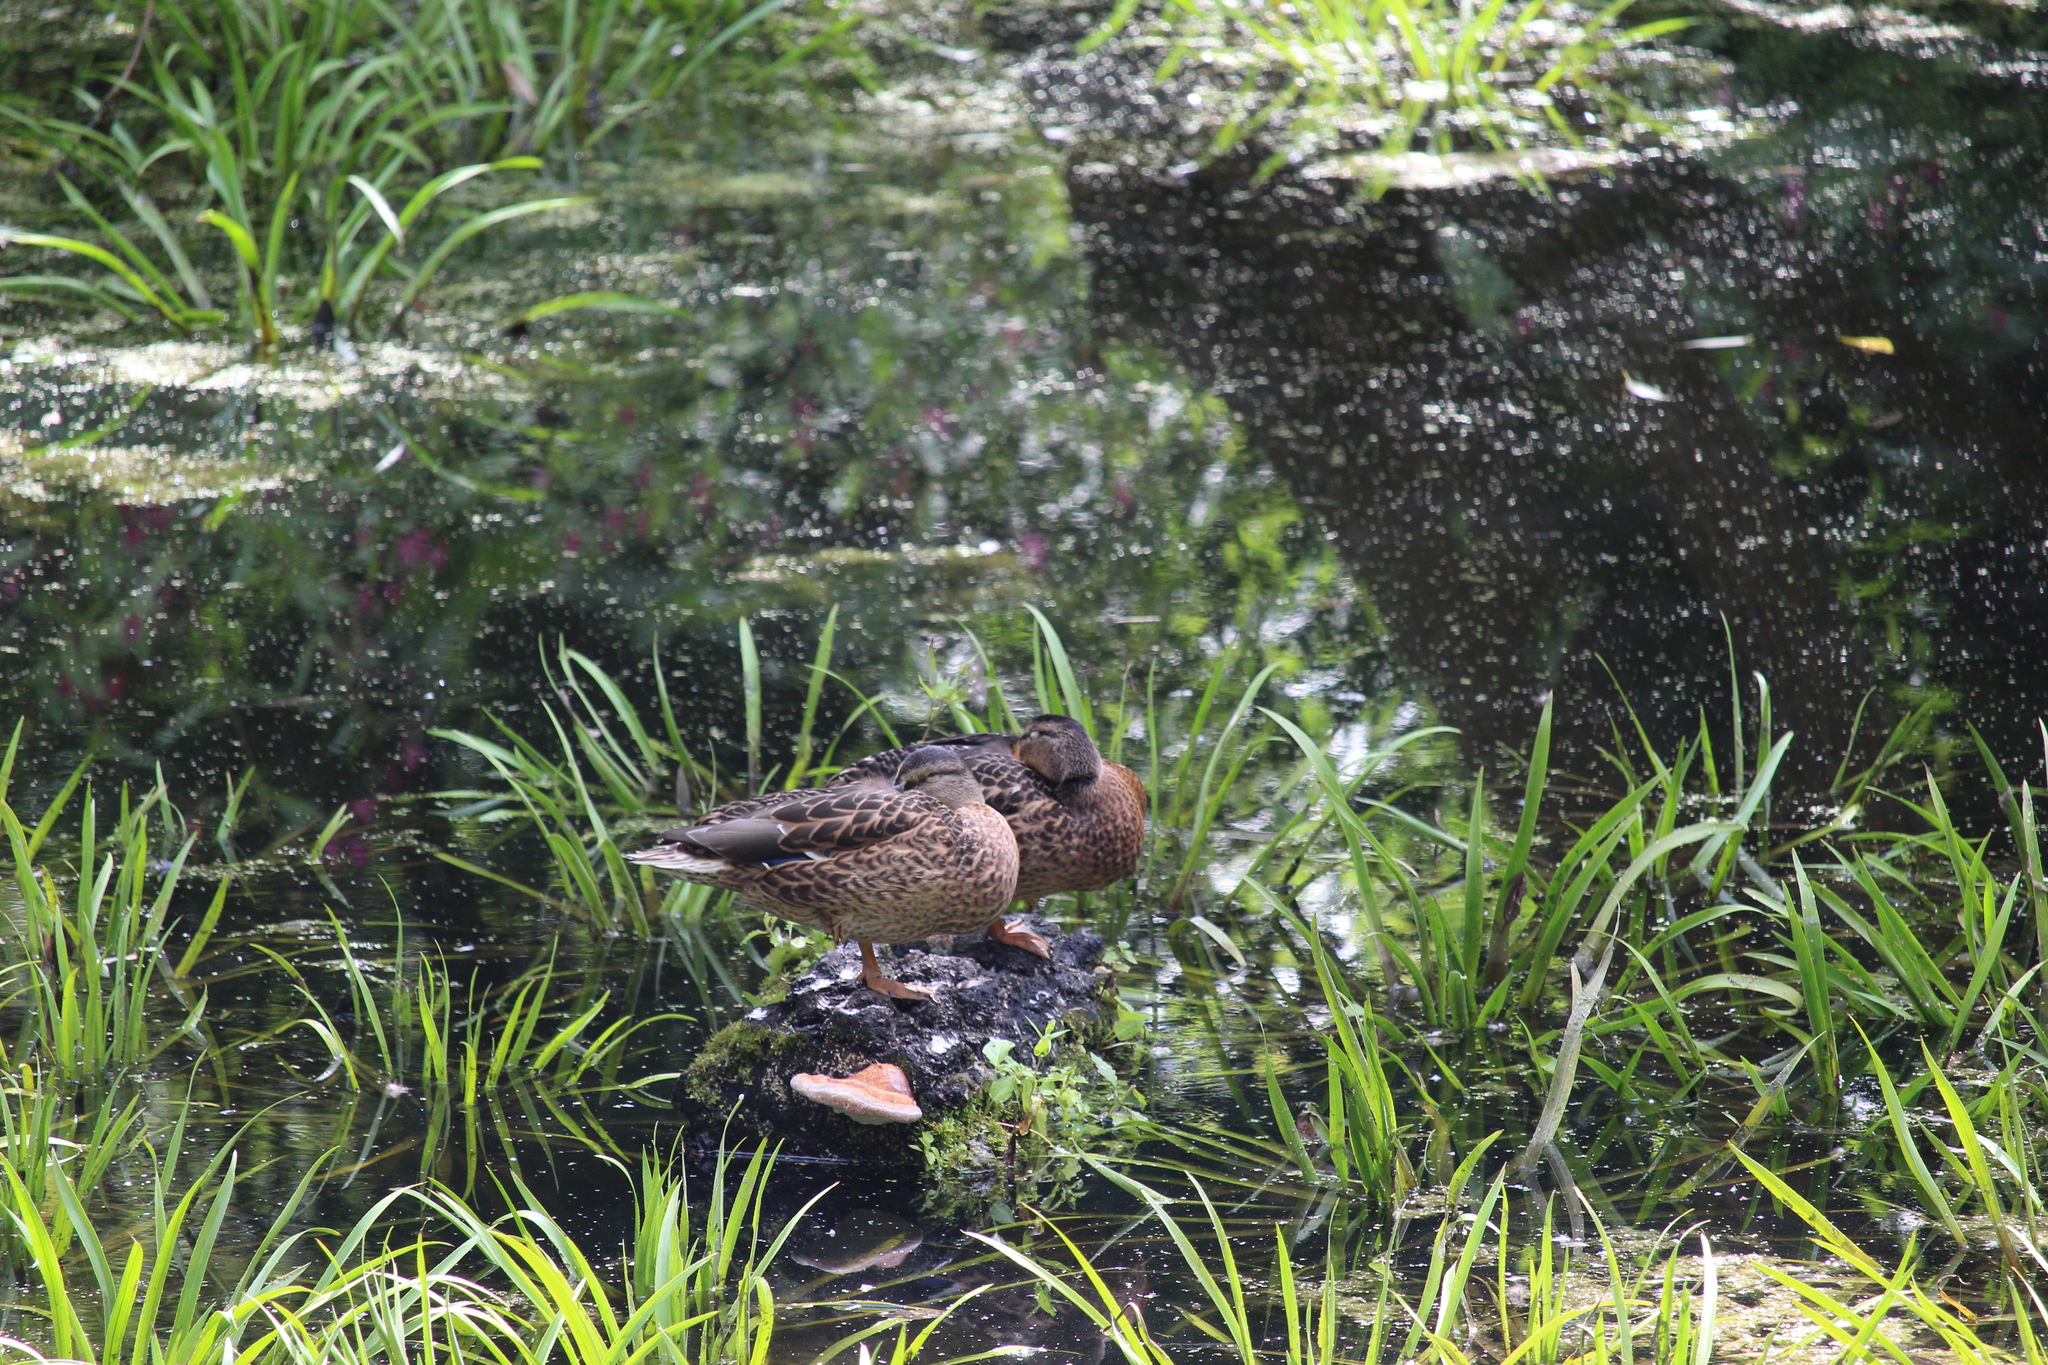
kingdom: Animalia
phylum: Chordata
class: Aves
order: Anseriformes
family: Anatidae
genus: Anas
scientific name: Anas platyrhynchos
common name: Mallard
